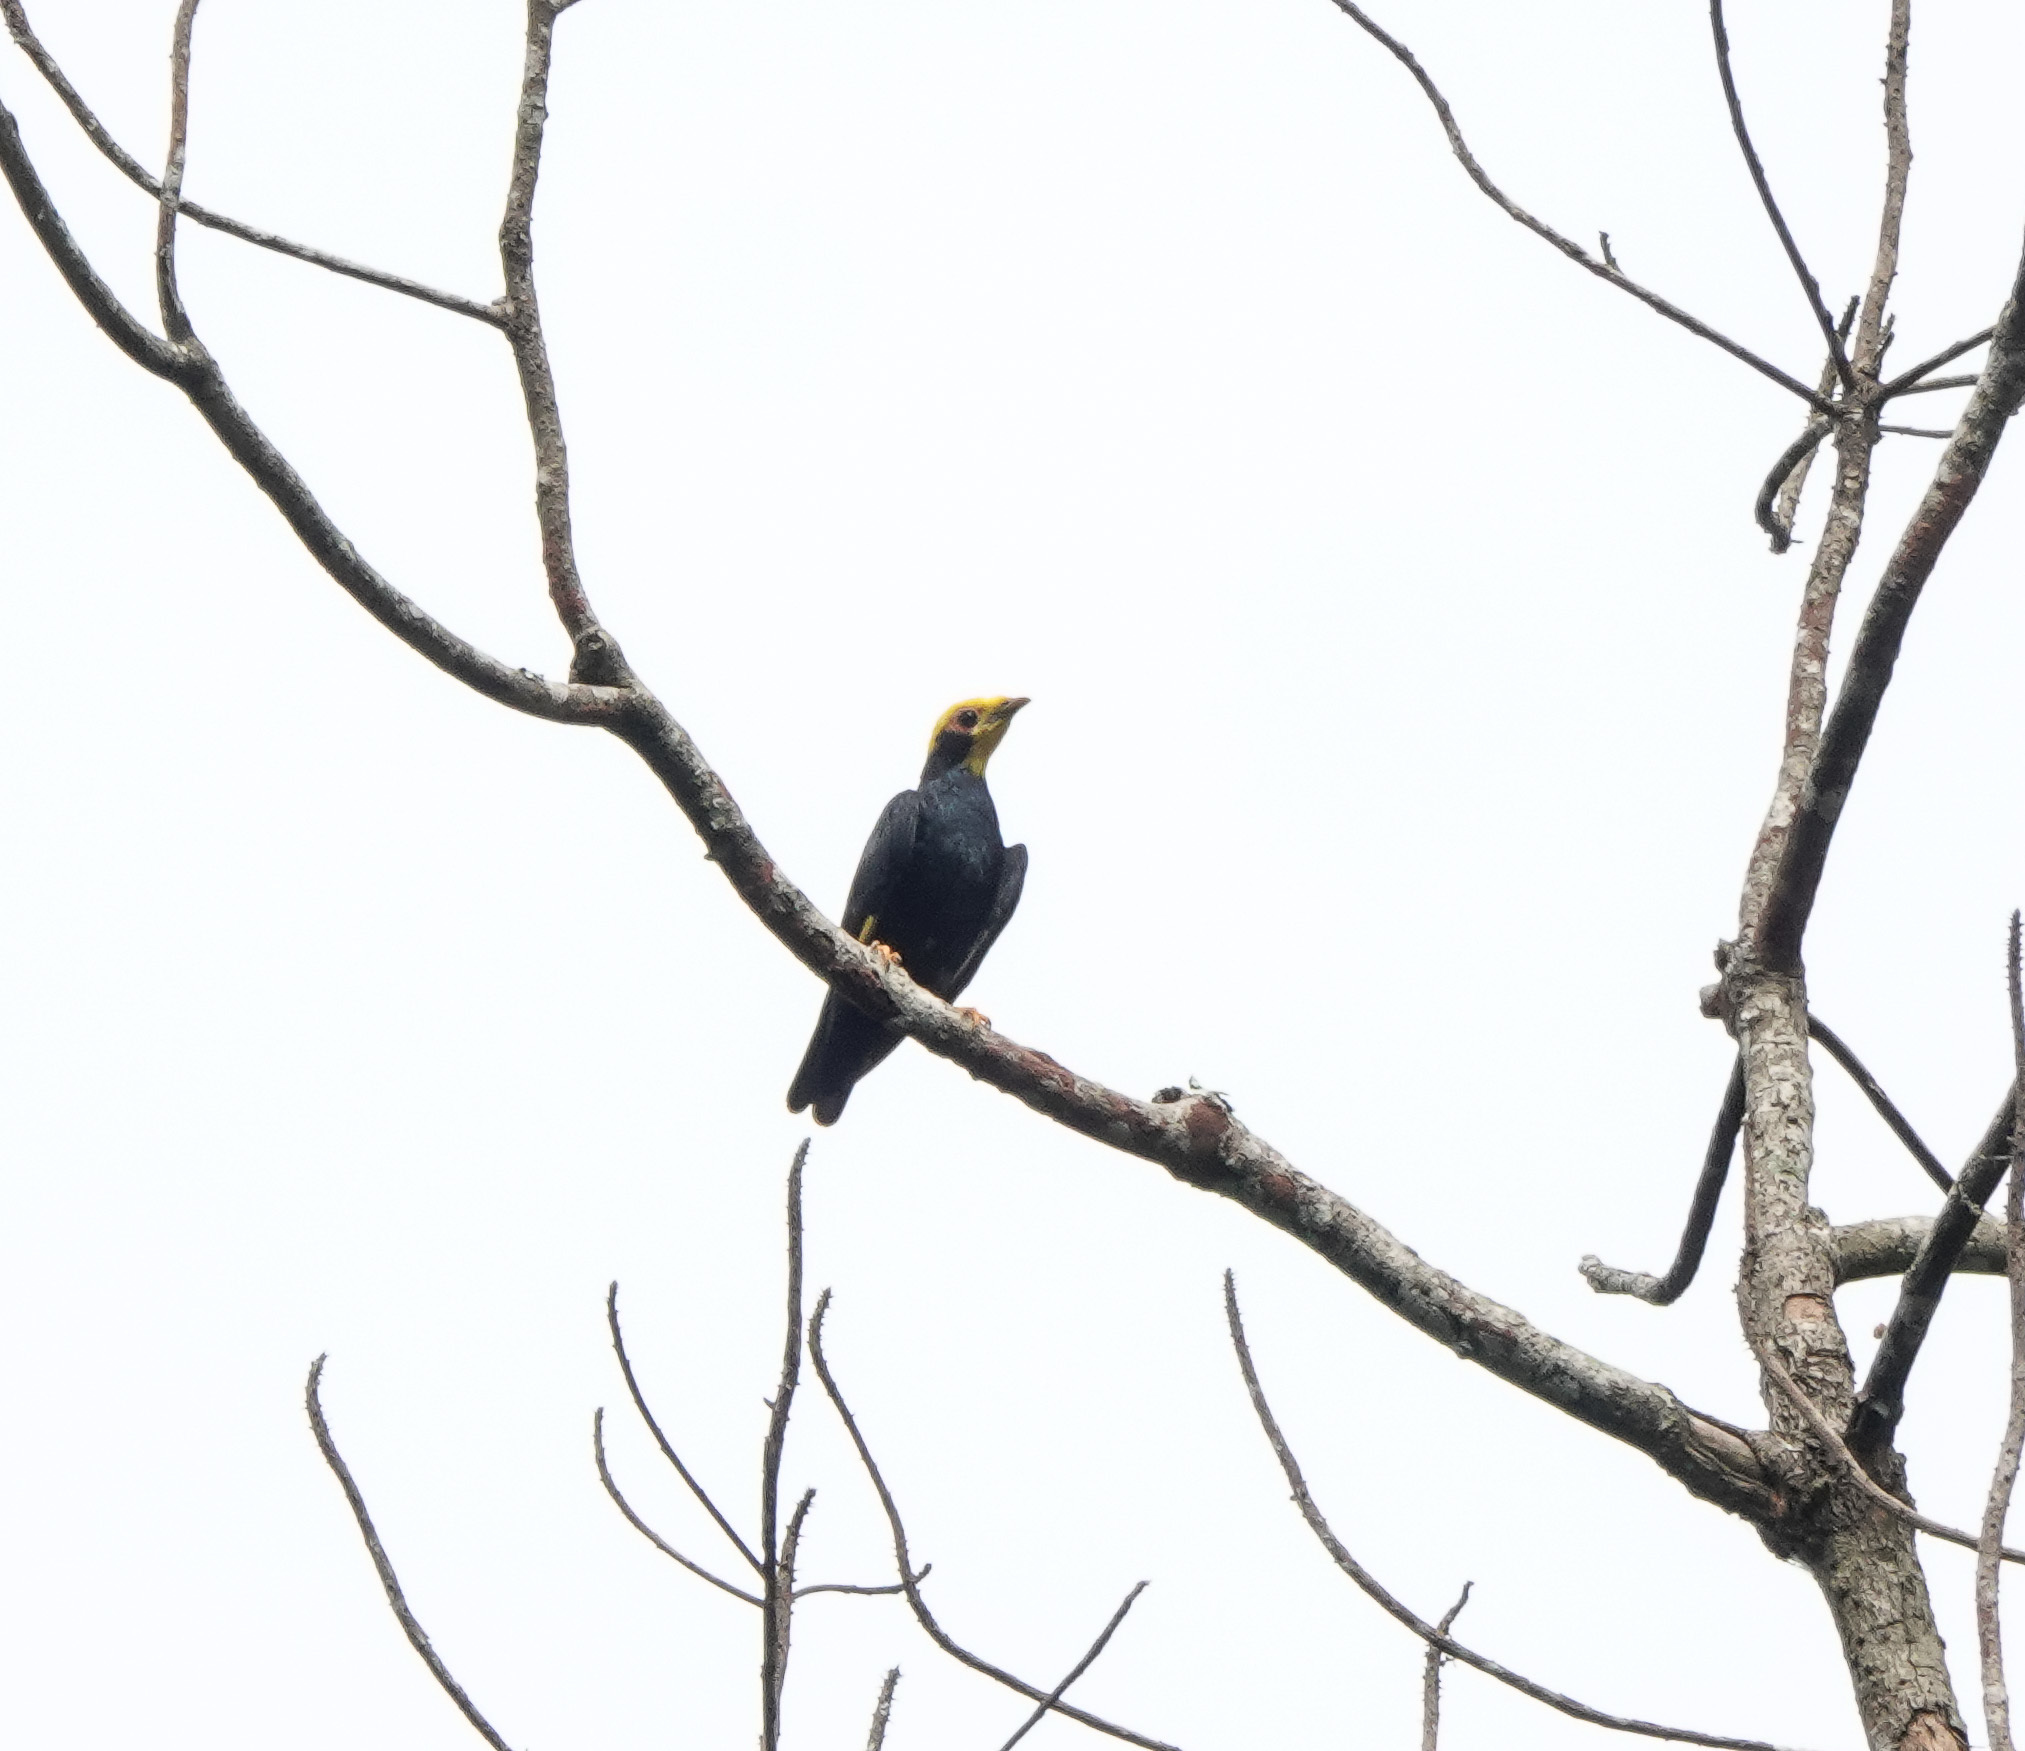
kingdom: Animalia
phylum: Chordata
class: Aves
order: Passeriformes
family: Sturnidae
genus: Ampeliceps
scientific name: Ampeliceps coronatus
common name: Golden-crested myna
